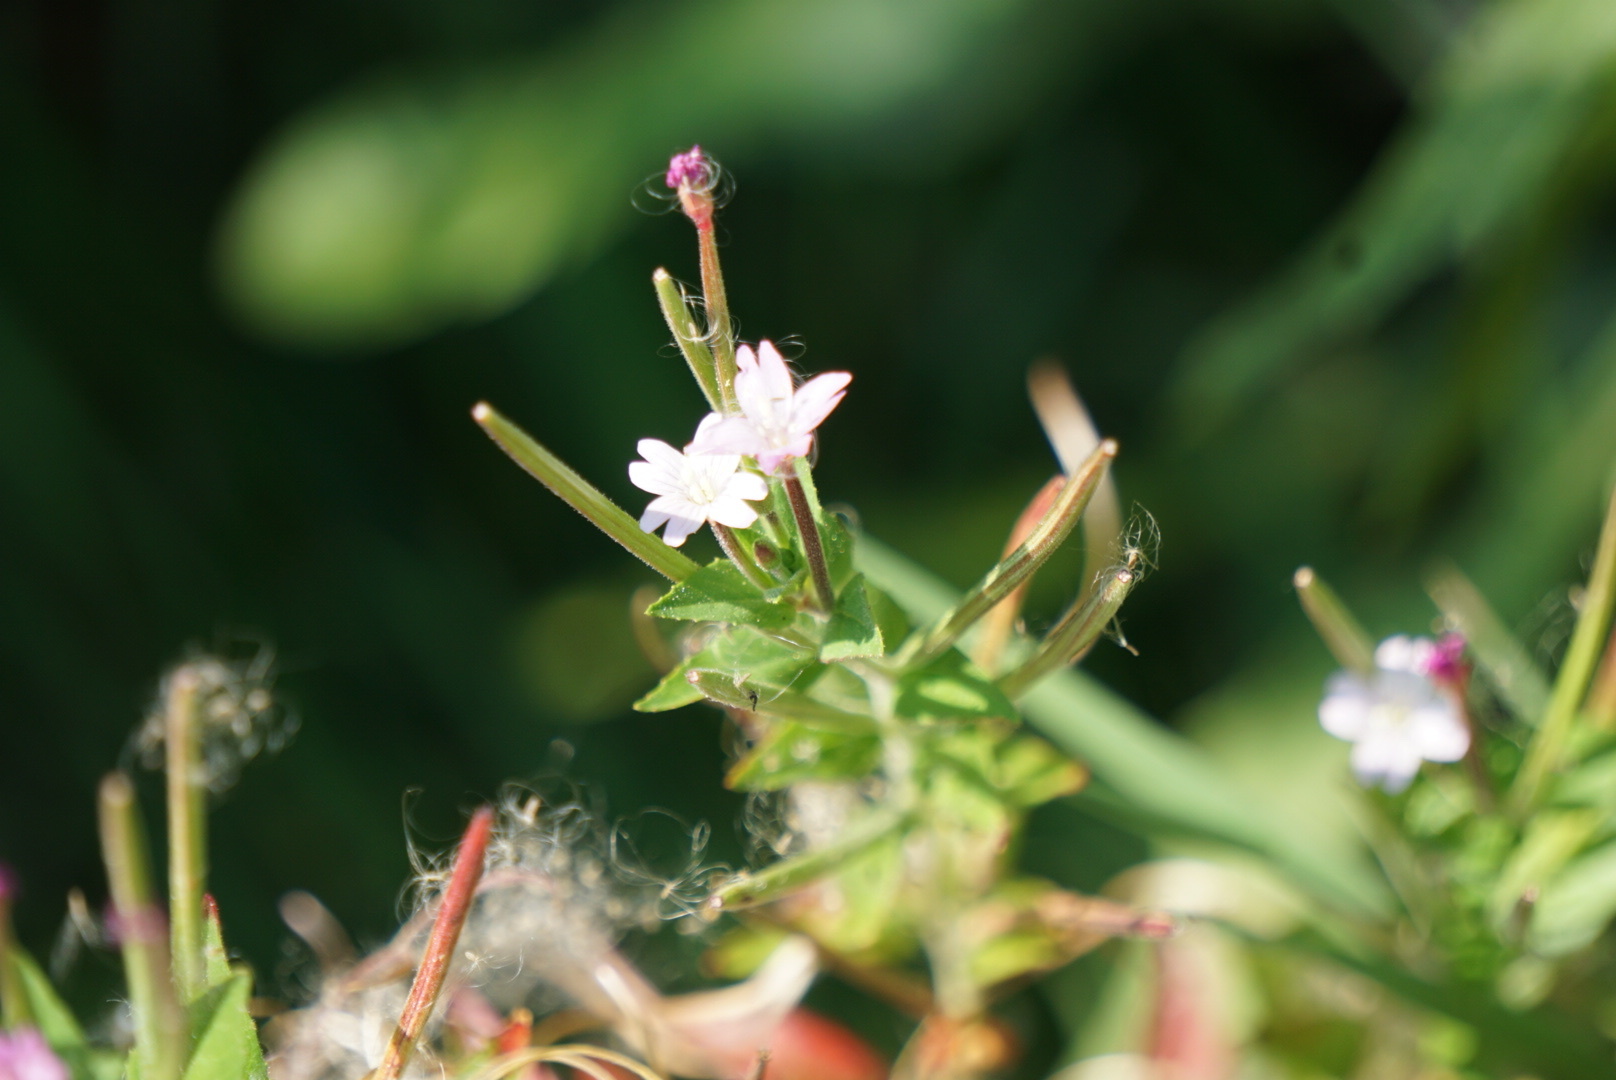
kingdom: Plantae
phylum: Tracheophyta
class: Magnoliopsida
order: Myrtales
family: Onagraceae
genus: Epilobium
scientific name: Epilobium ciliatum
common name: American willowherb
